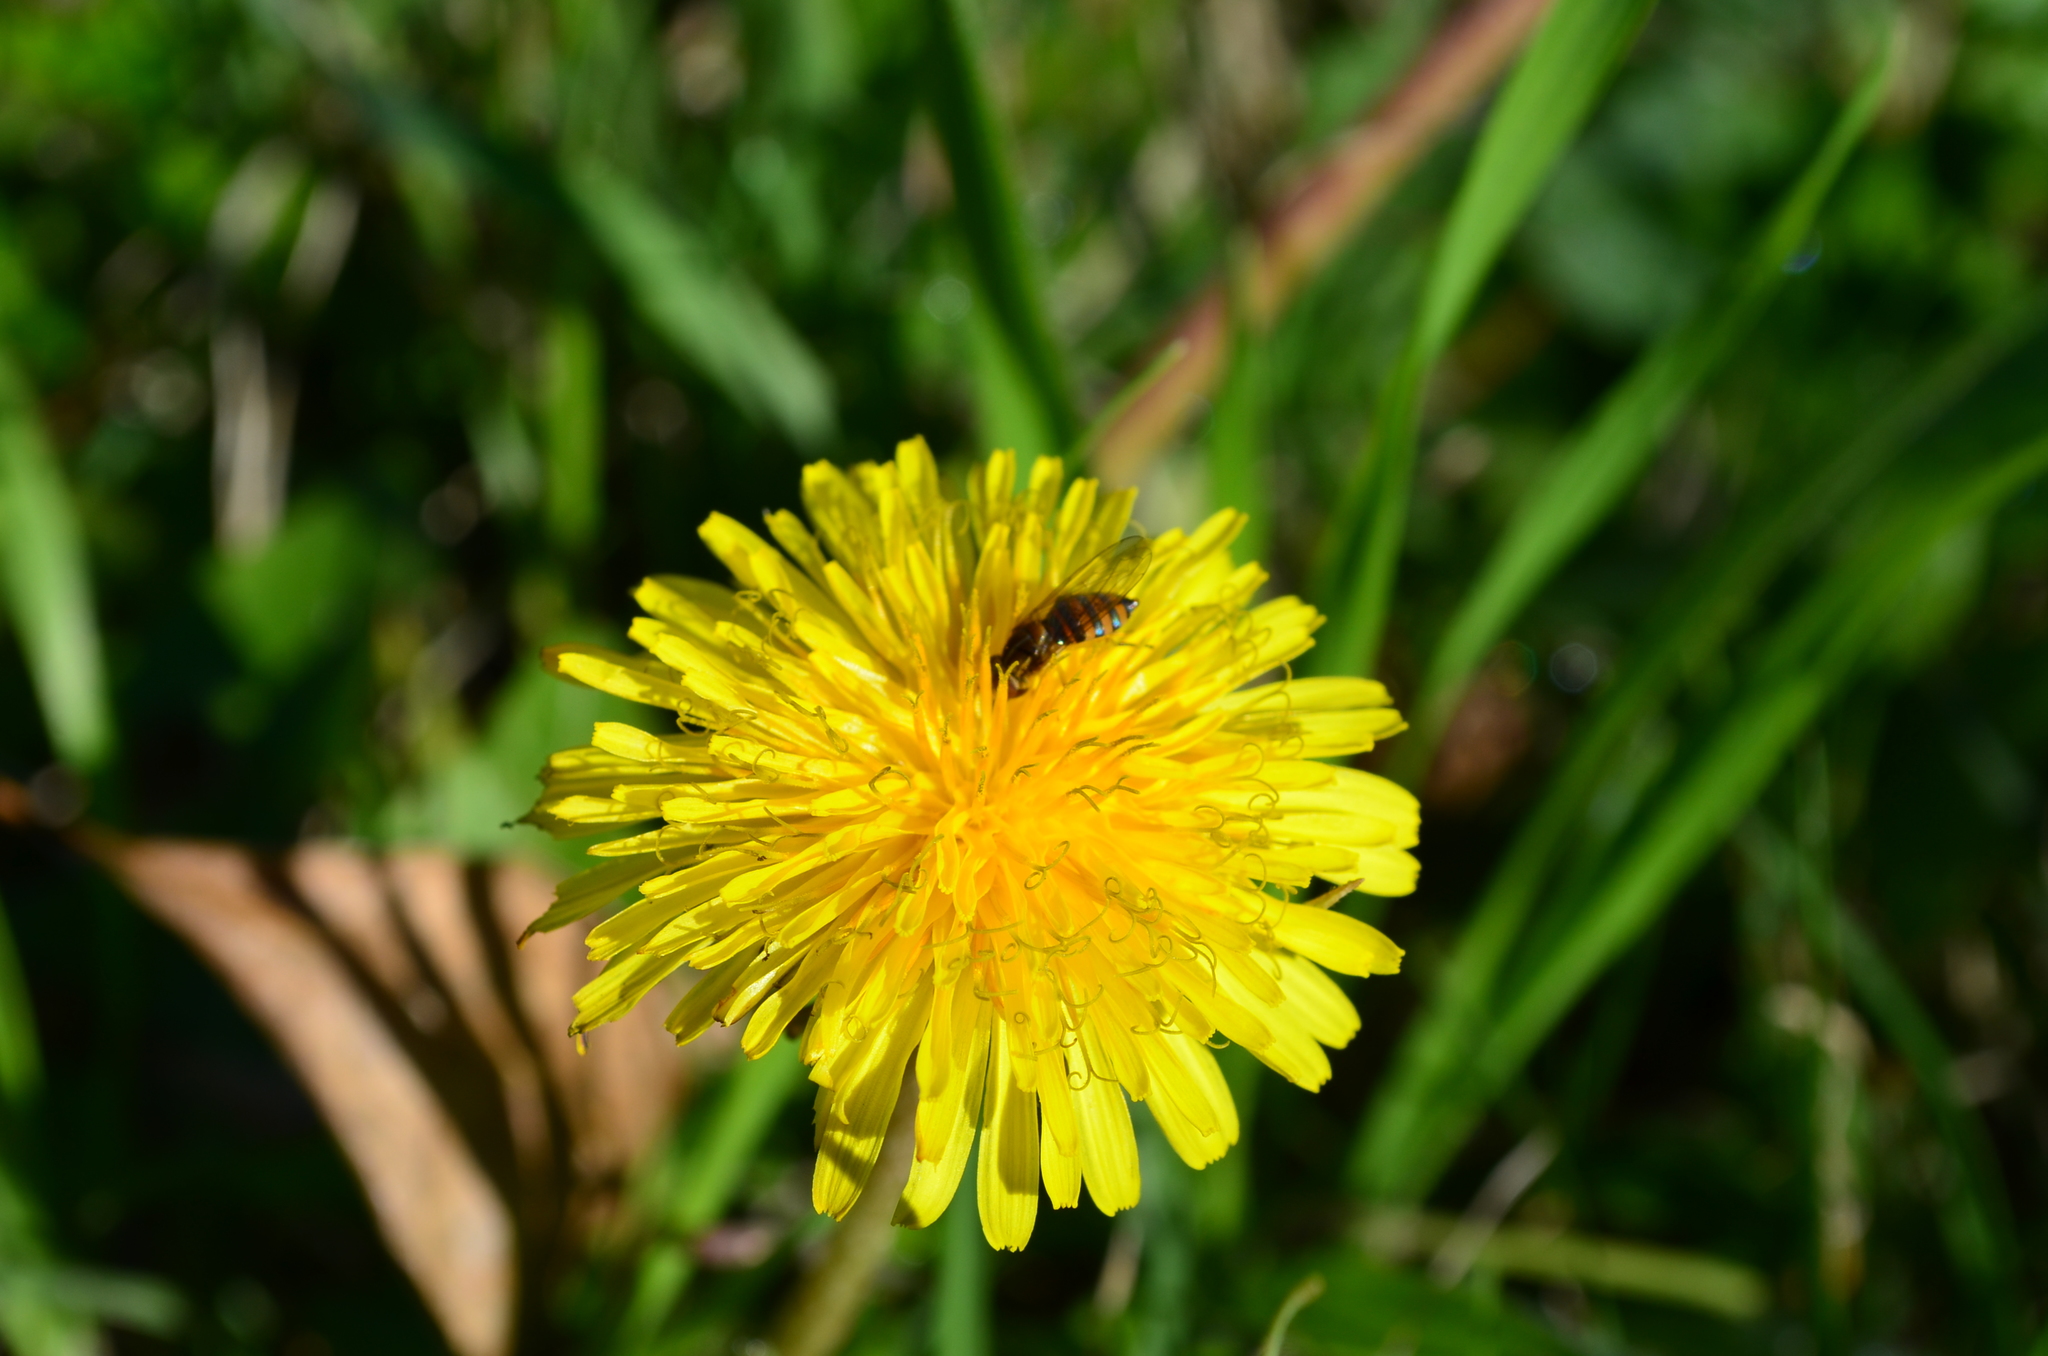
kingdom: Animalia
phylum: Arthropoda
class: Insecta
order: Diptera
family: Syrphidae
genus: Toxomerus
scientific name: Toxomerus
